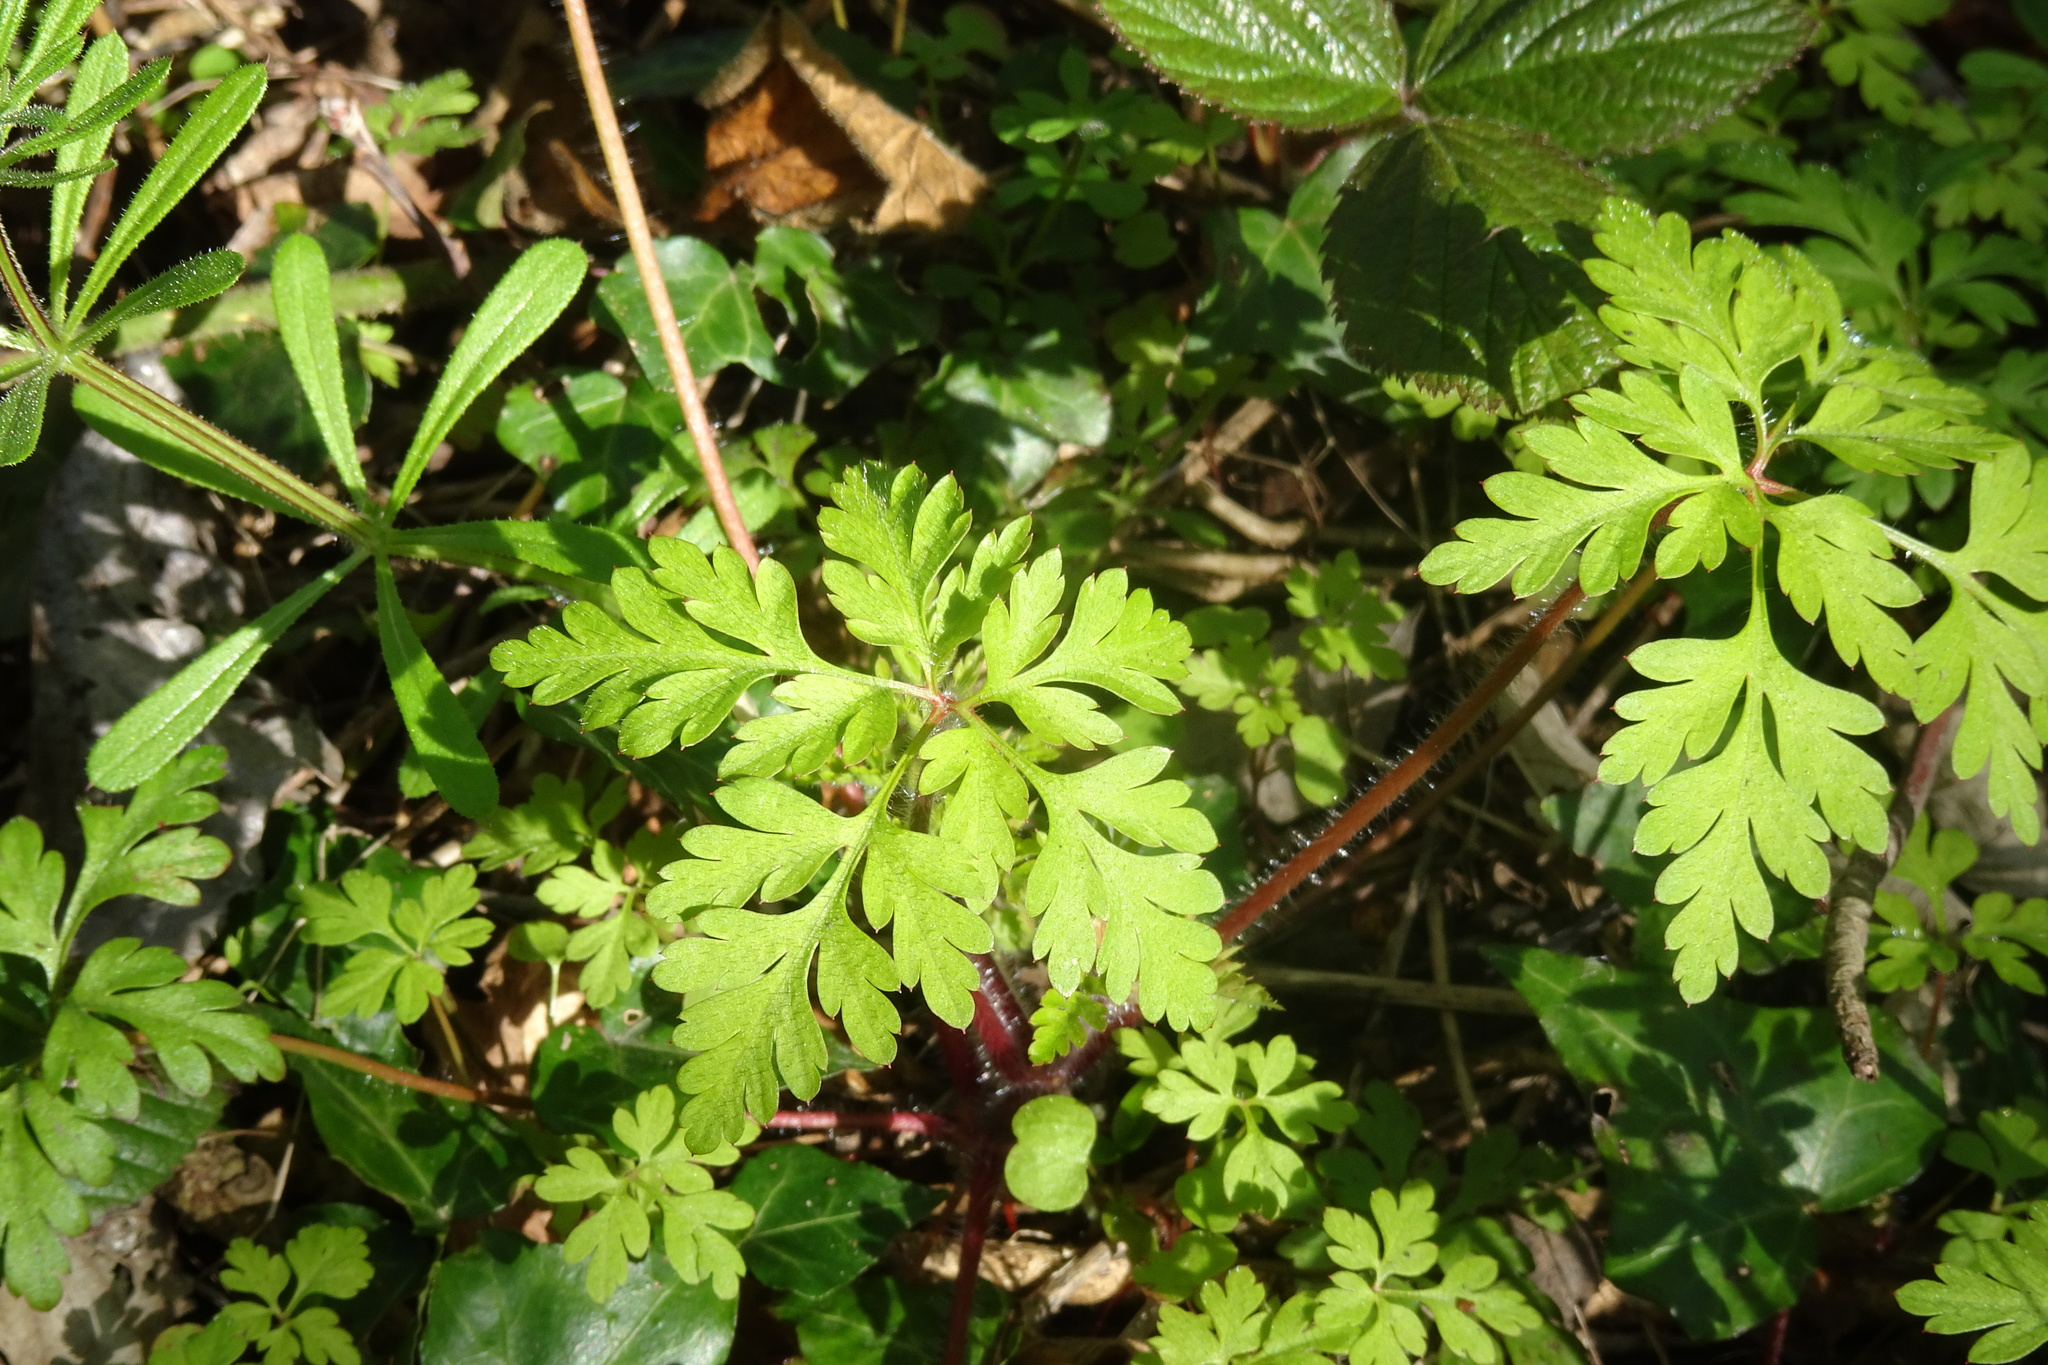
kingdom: Plantae
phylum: Tracheophyta
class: Magnoliopsida
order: Geraniales
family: Geraniaceae
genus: Geranium
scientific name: Geranium robertianum
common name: Herb-robert
